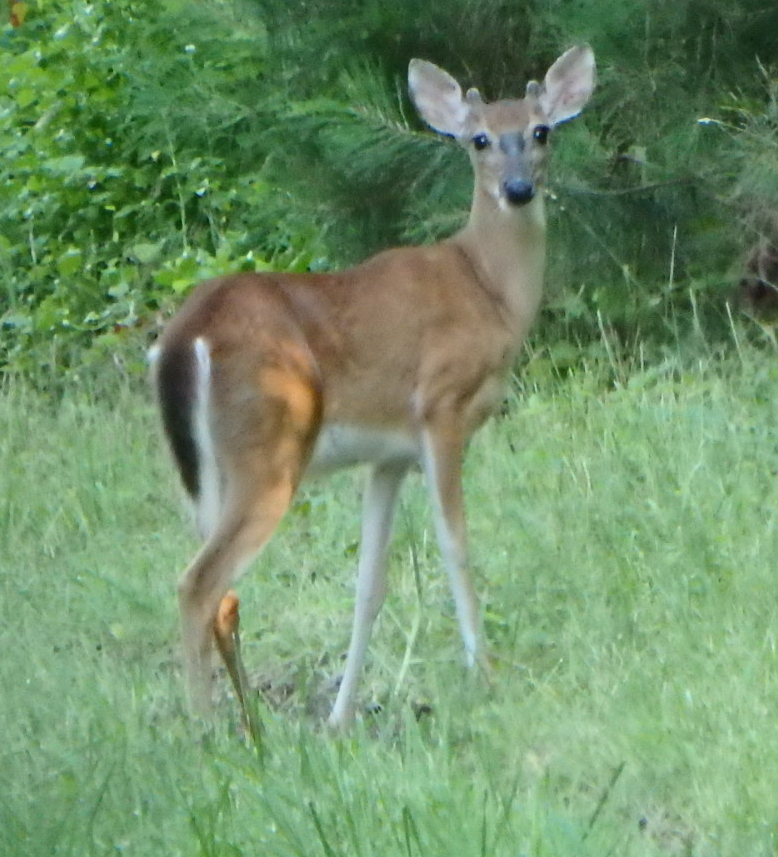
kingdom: Animalia
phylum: Chordata
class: Mammalia
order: Artiodactyla
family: Cervidae
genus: Odocoileus
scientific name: Odocoileus virginianus
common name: White-tailed deer
